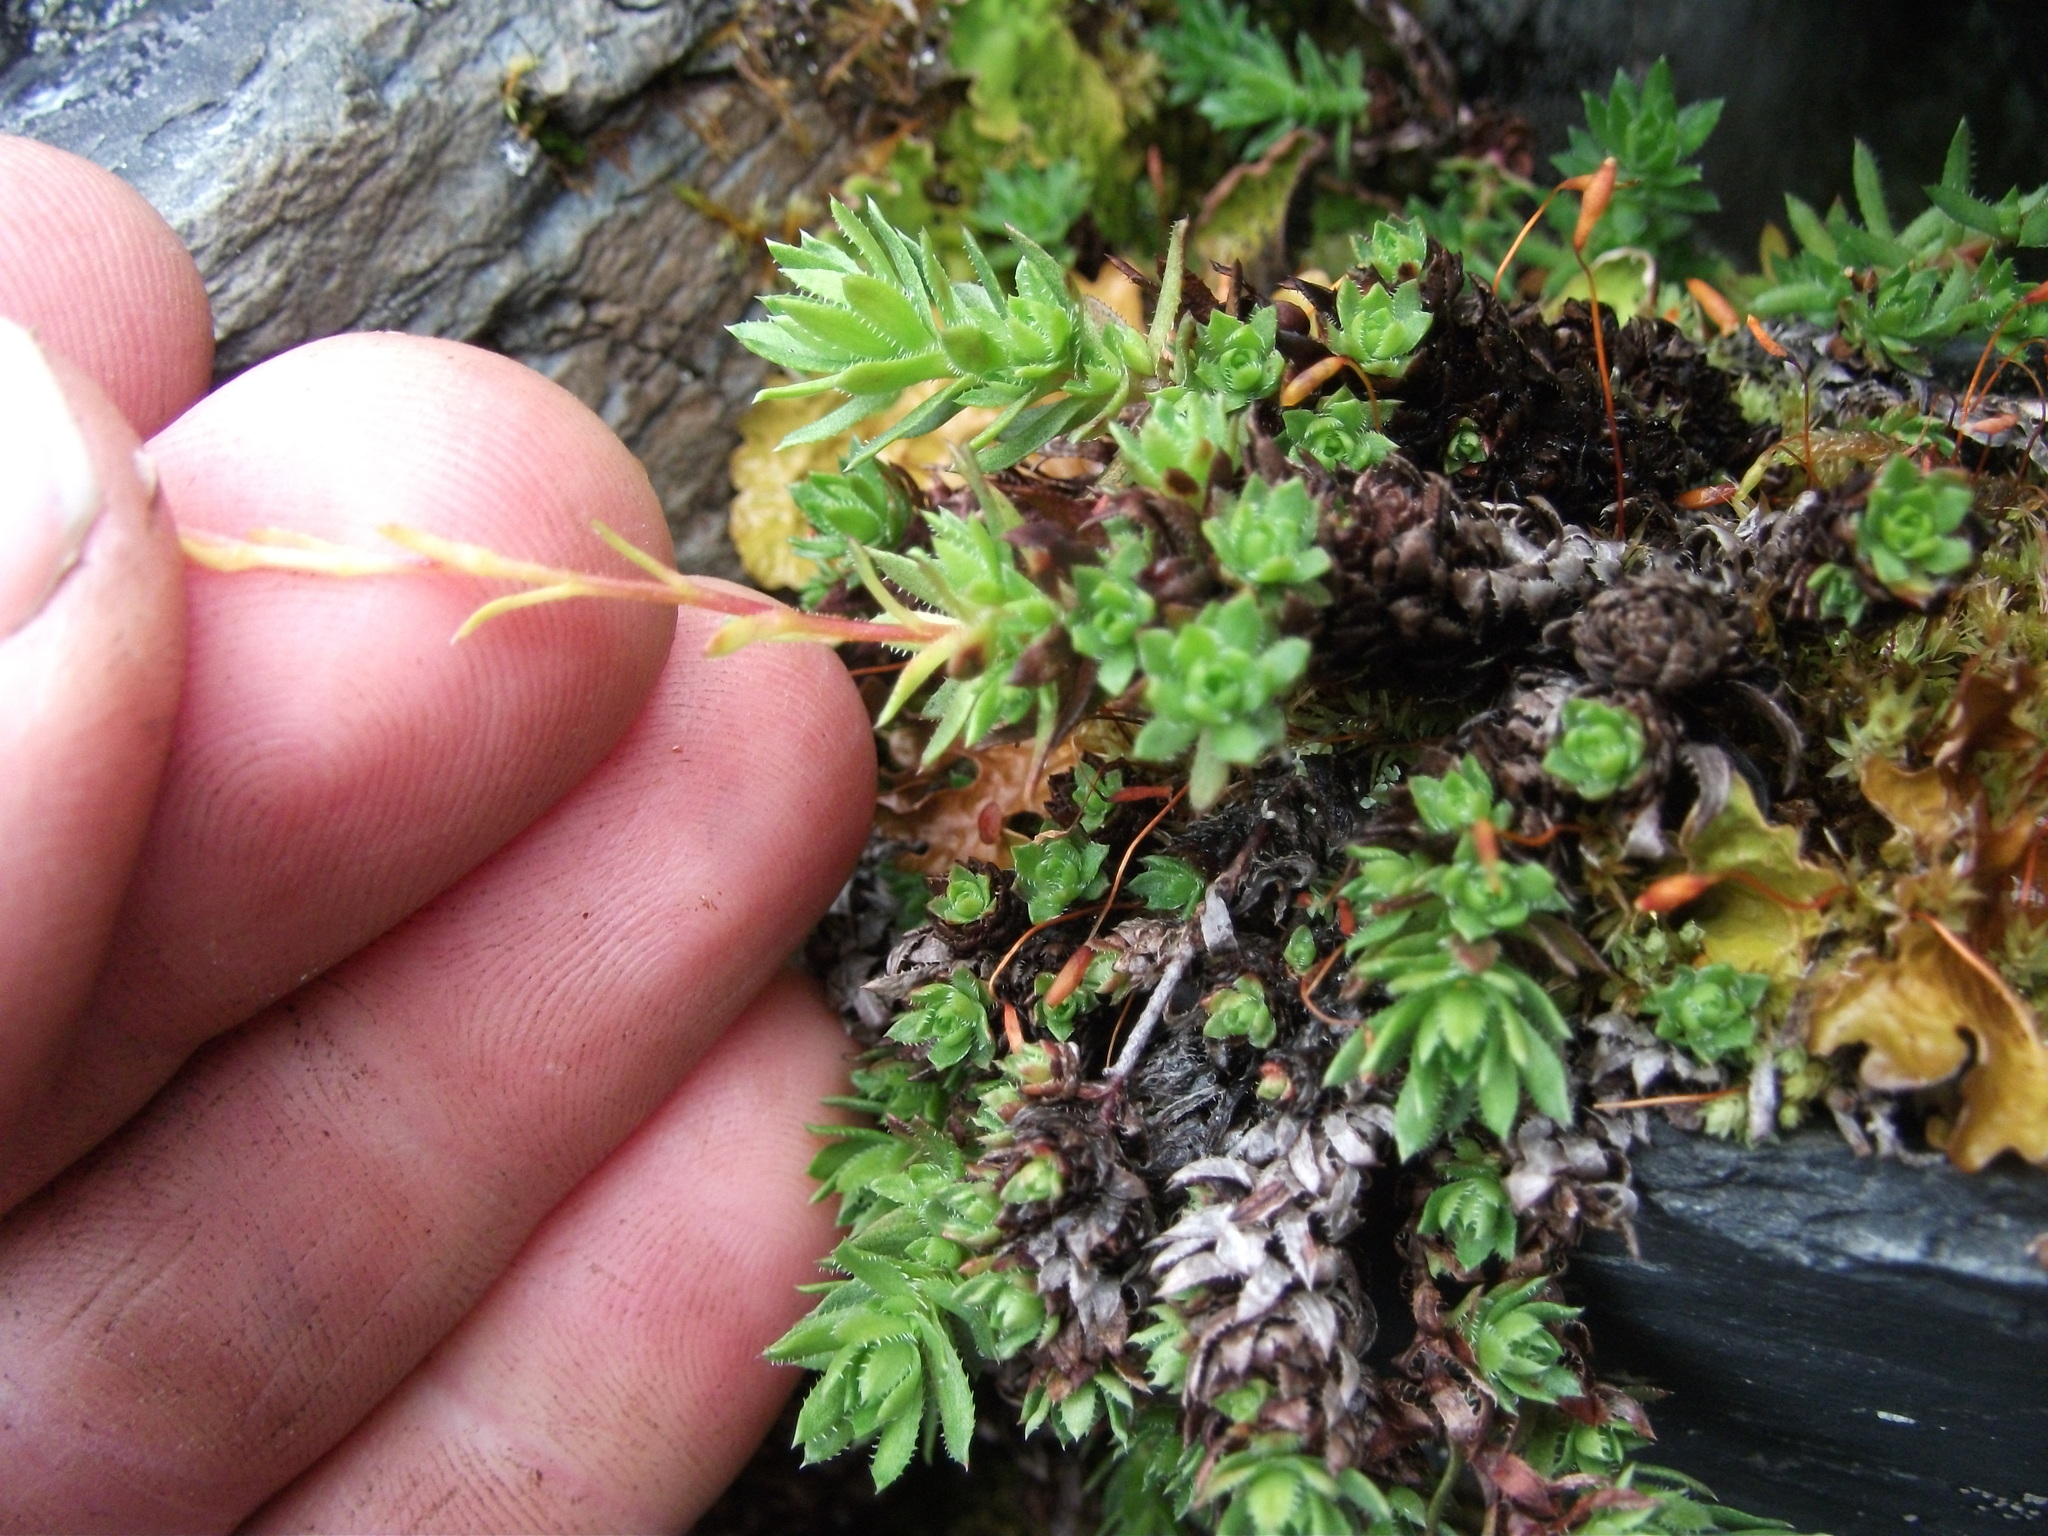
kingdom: Plantae
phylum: Tracheophyta
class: Magnoliopsida
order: Saxifragales
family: Saxifragaceae
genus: Saxifraga
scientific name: Saxifraga bronchialis
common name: Matted saxifrage
